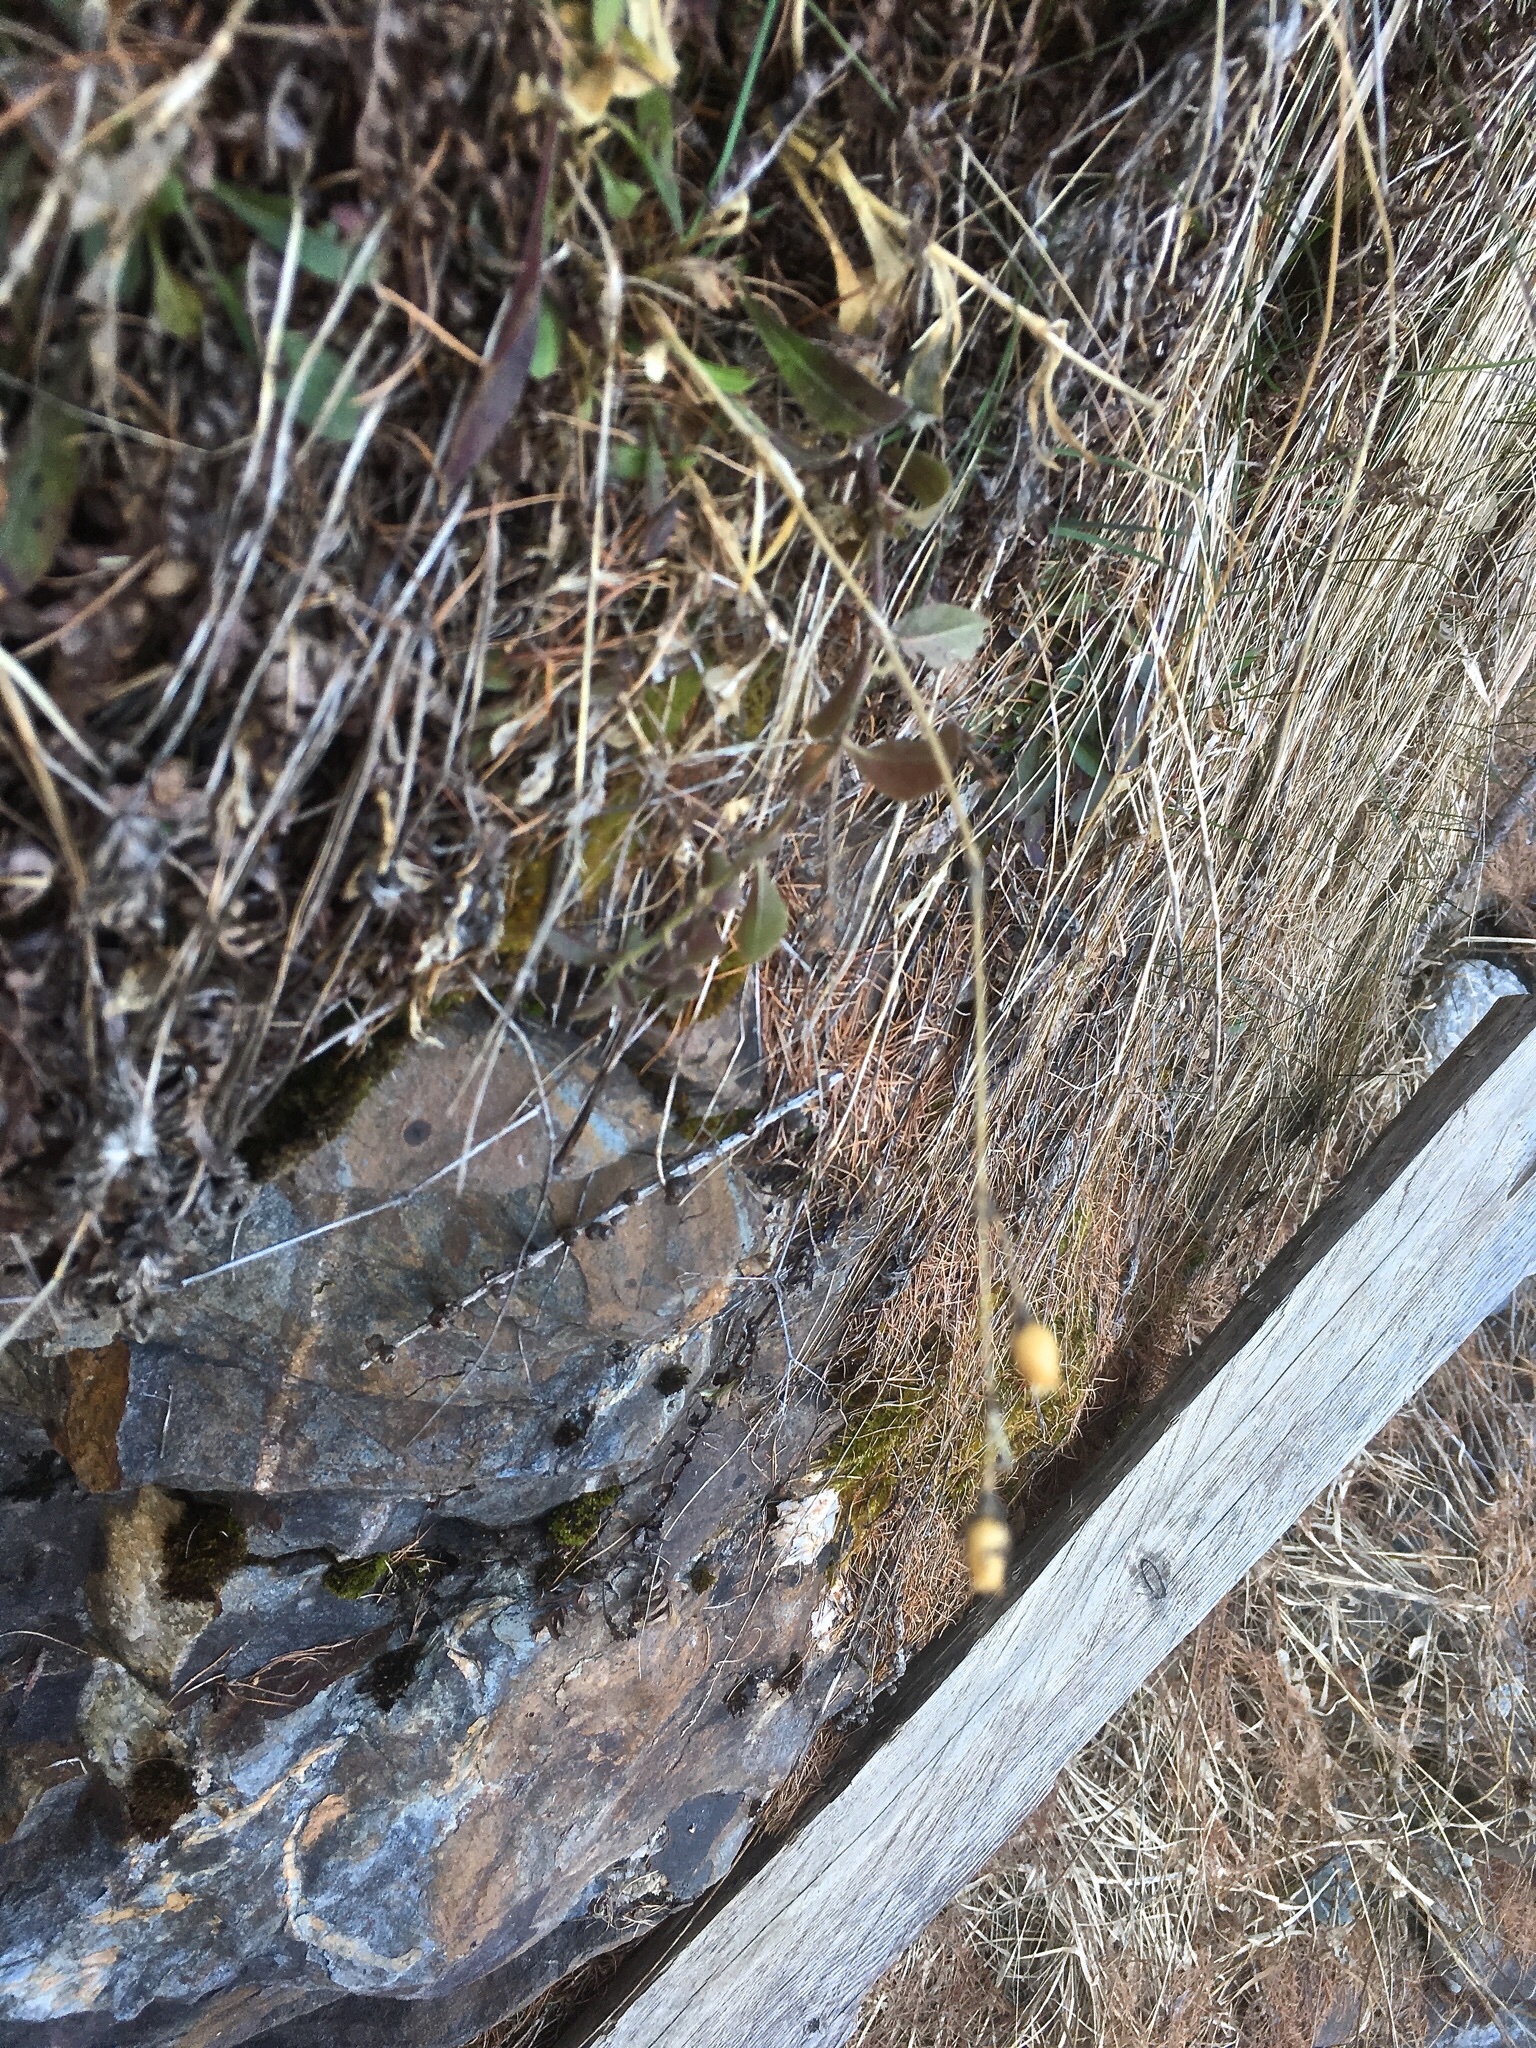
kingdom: Plantae
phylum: Tracheophyta
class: Magnoliopsida
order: Caryophyllales
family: Caryophyllaceae
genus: Silene
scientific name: Silene nutans
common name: Nottingham catchfly
